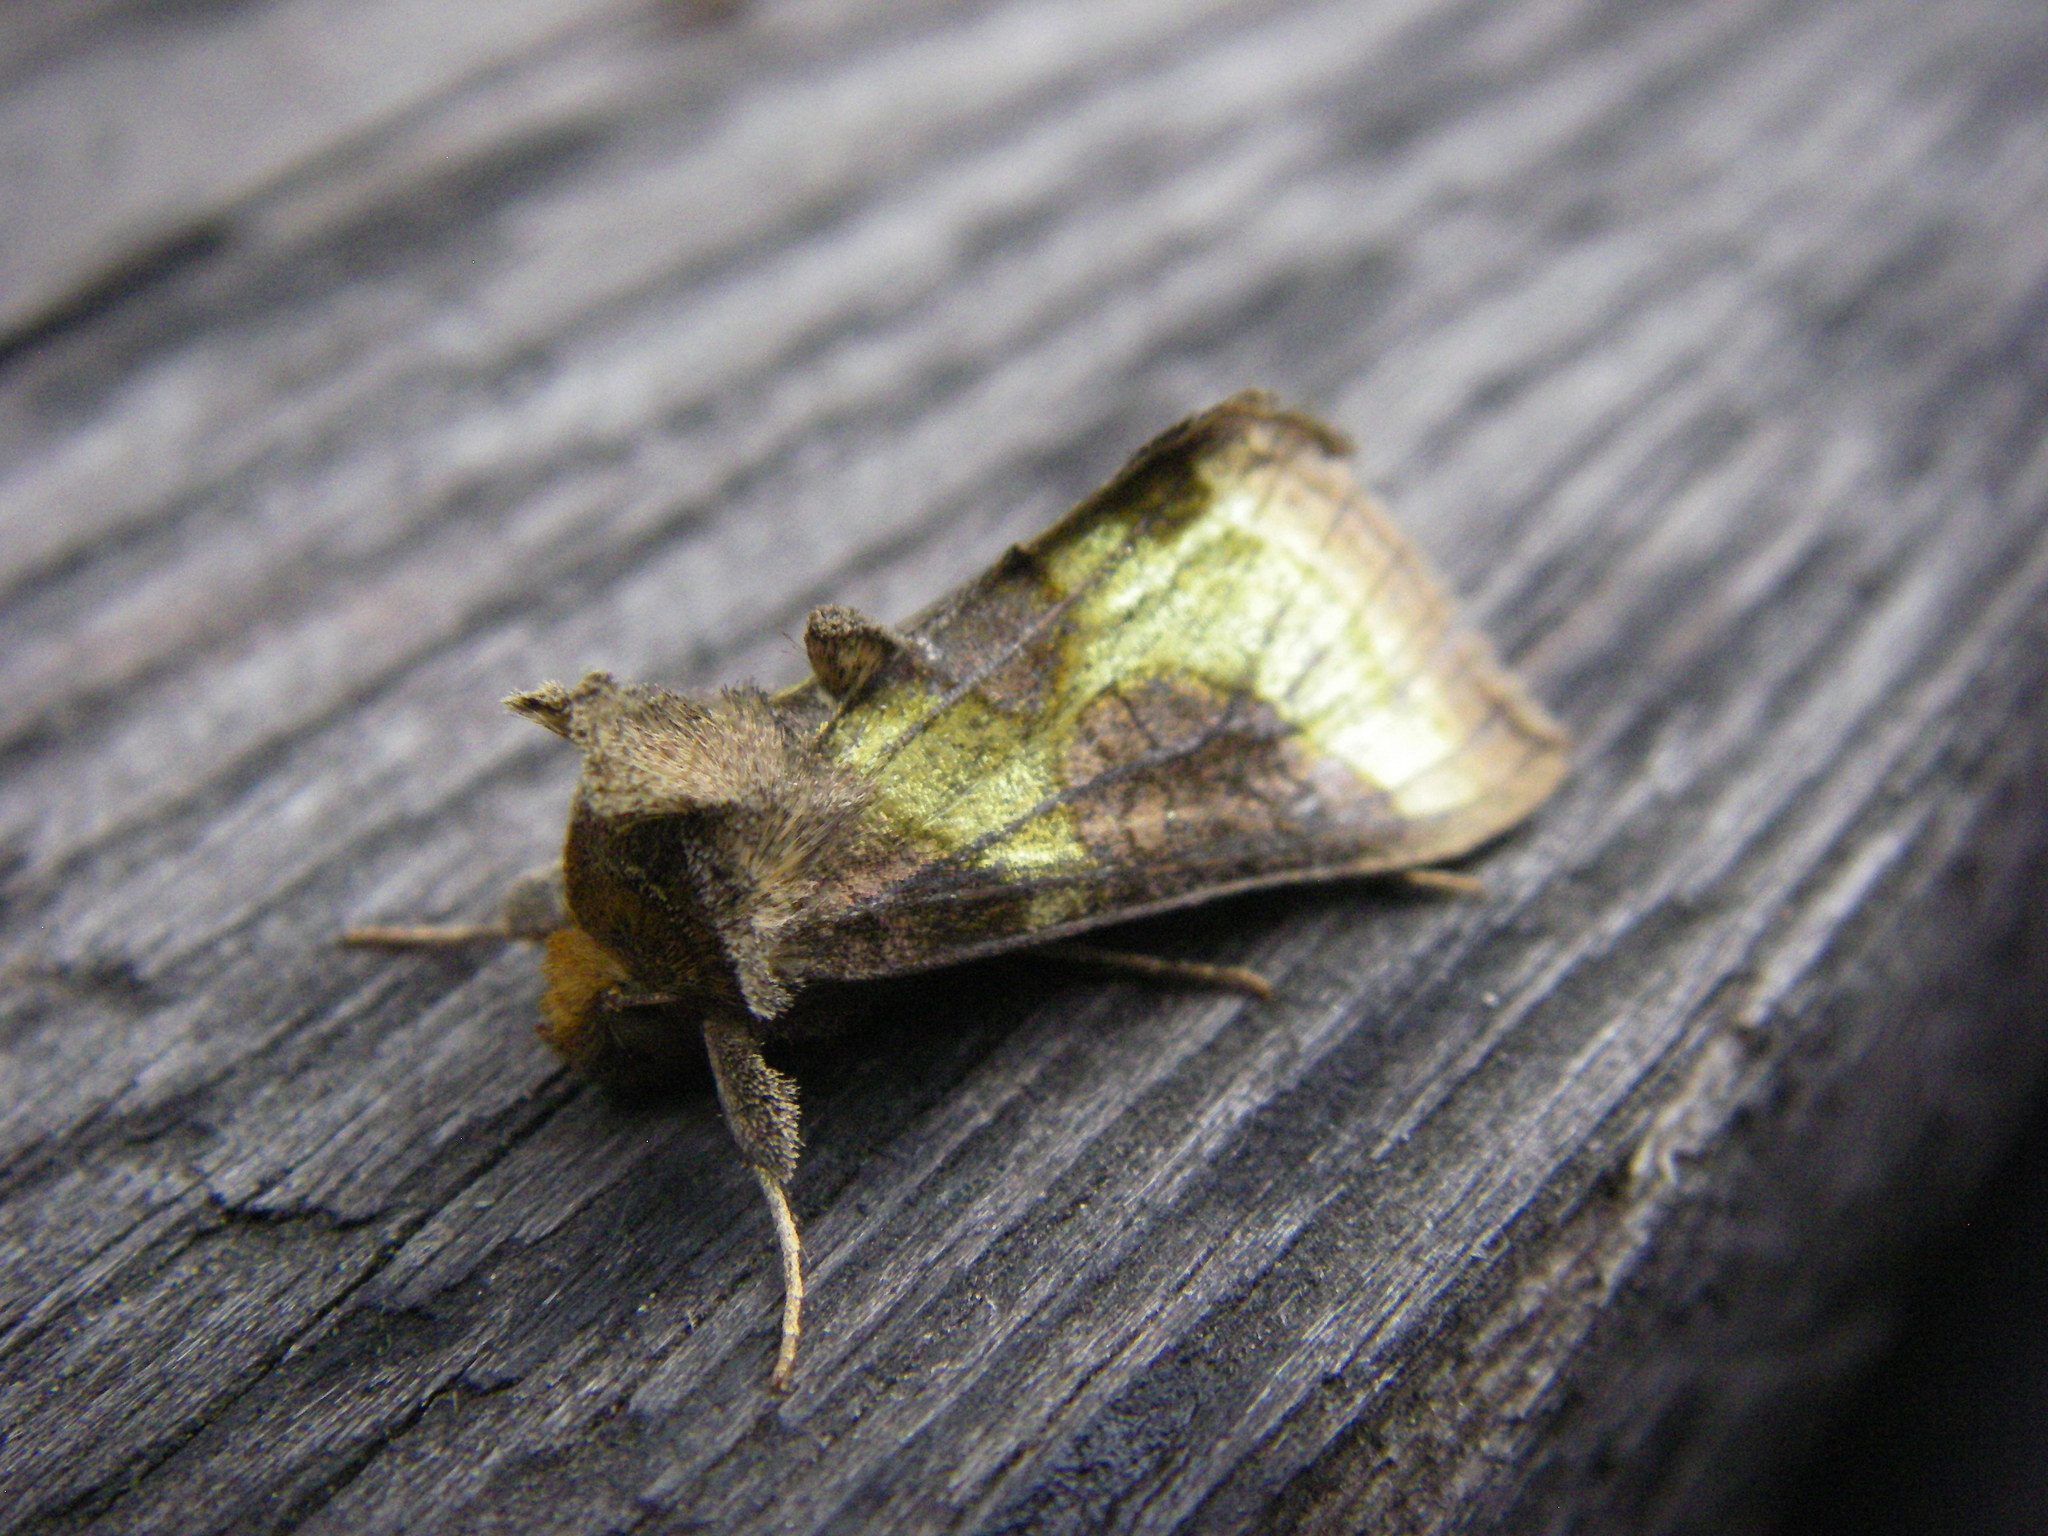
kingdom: Animalia
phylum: Arthropoda
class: Insecta
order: Lepidoptera
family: Noctuidae
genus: Diachrysia
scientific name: Diachrysia chrysitis
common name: Burnished brass
